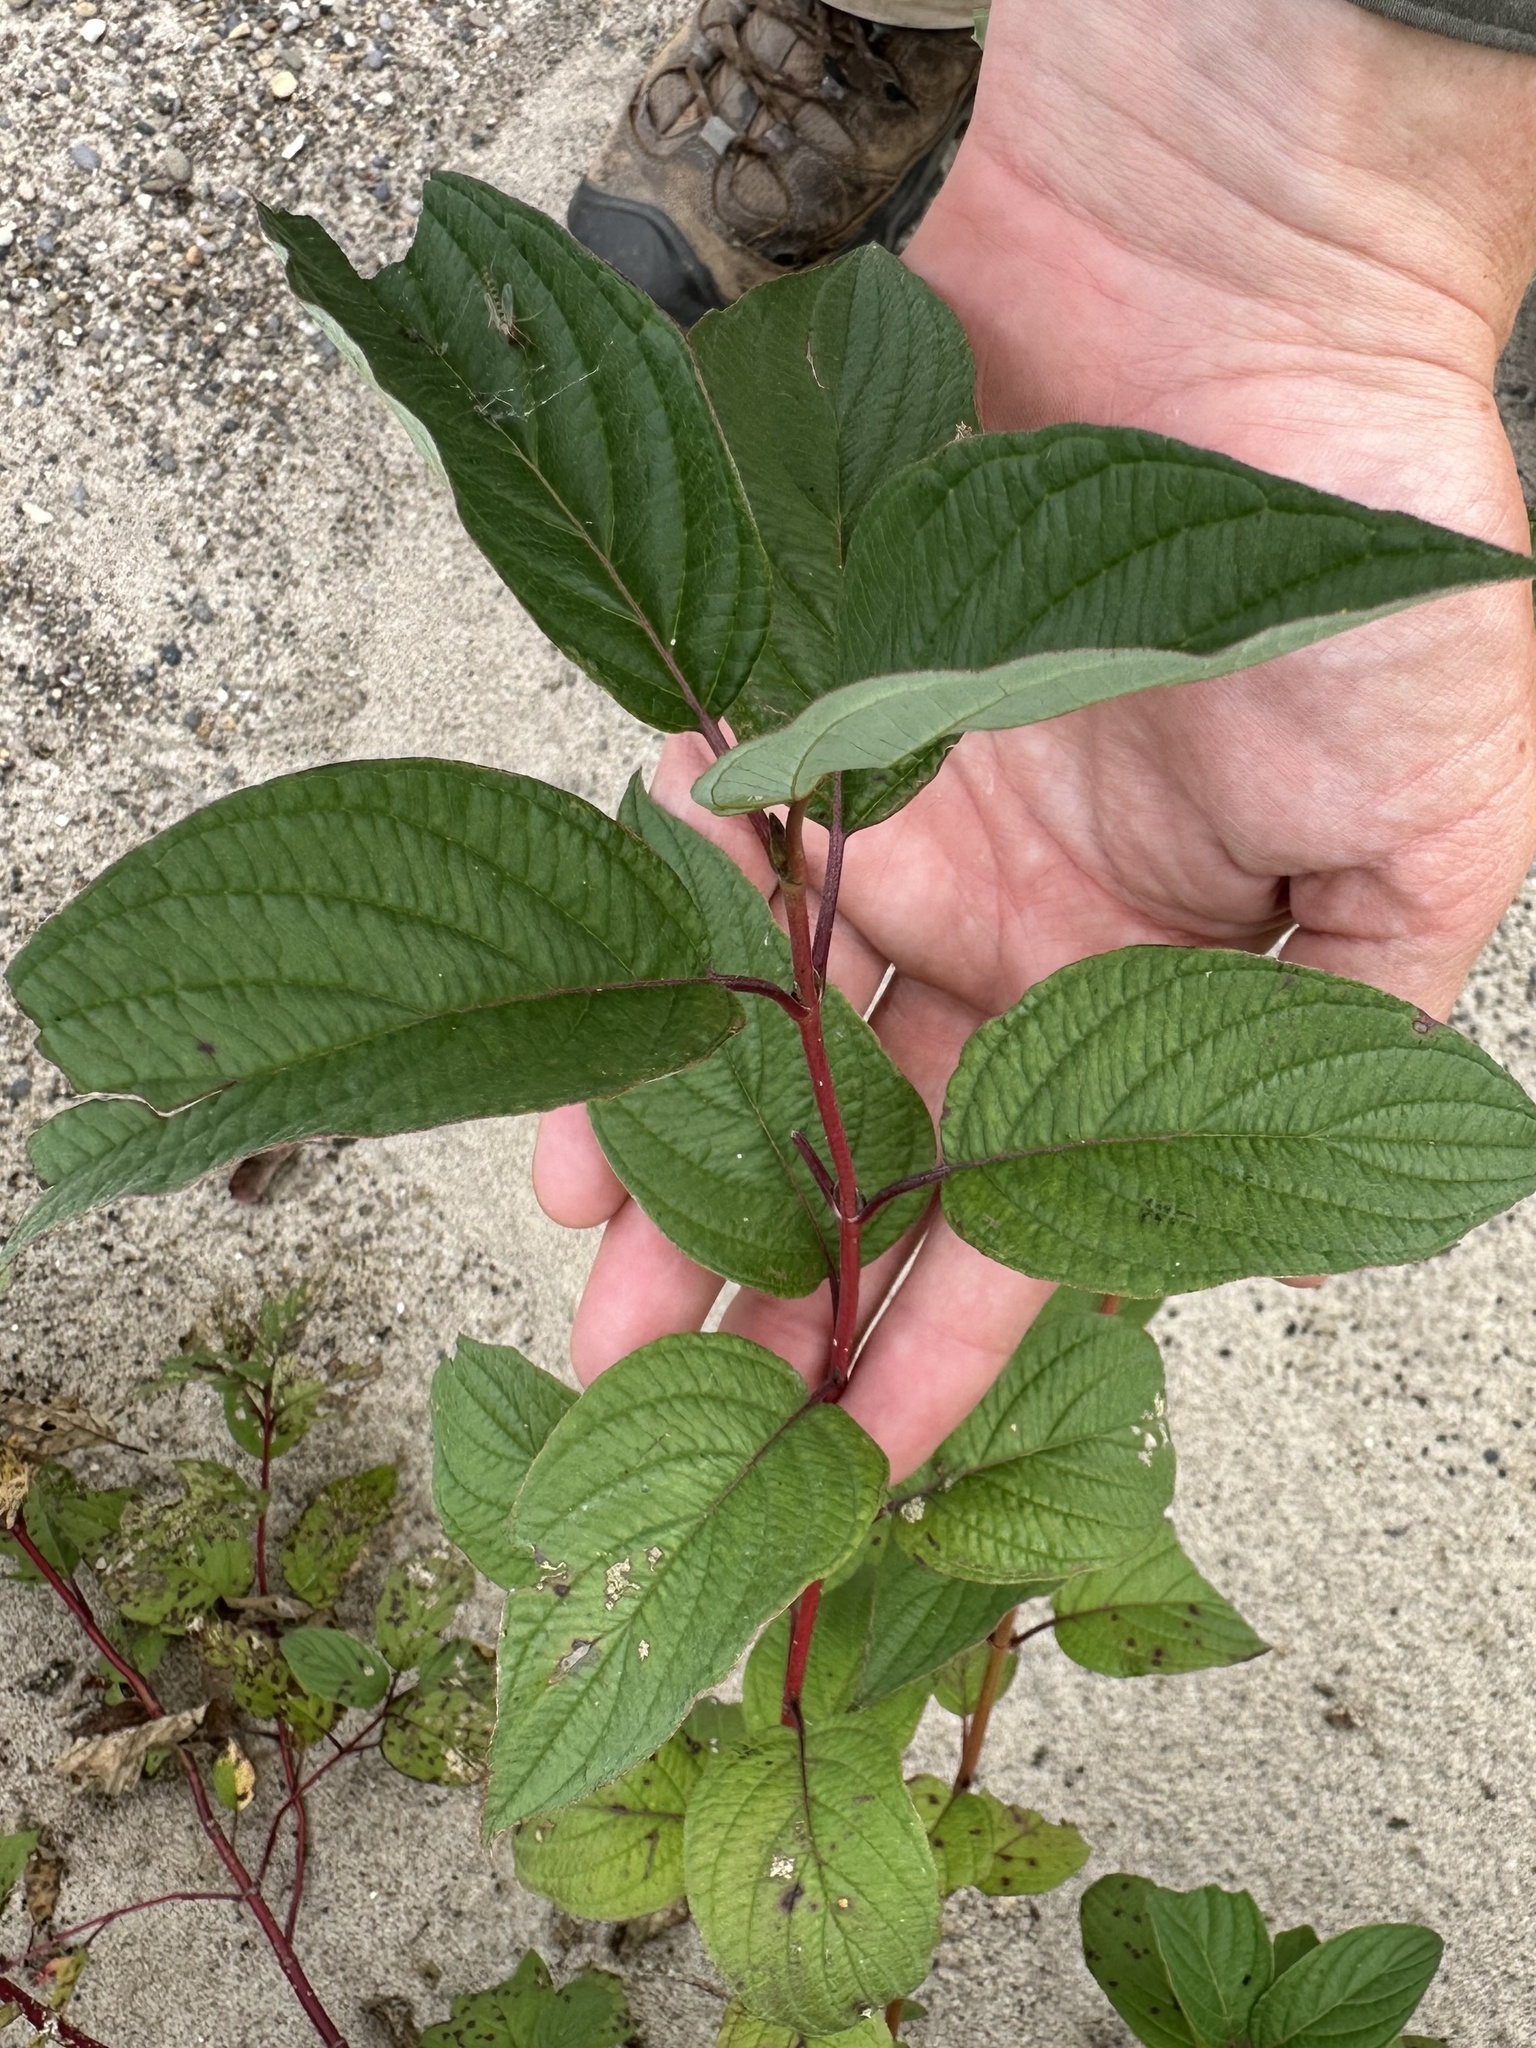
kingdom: Plantae
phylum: Tracheophyta
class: Magnoliopsida
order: Cornales
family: Cornaceae
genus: Cornus
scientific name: Cornus sericea
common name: Red-osier dogwood
